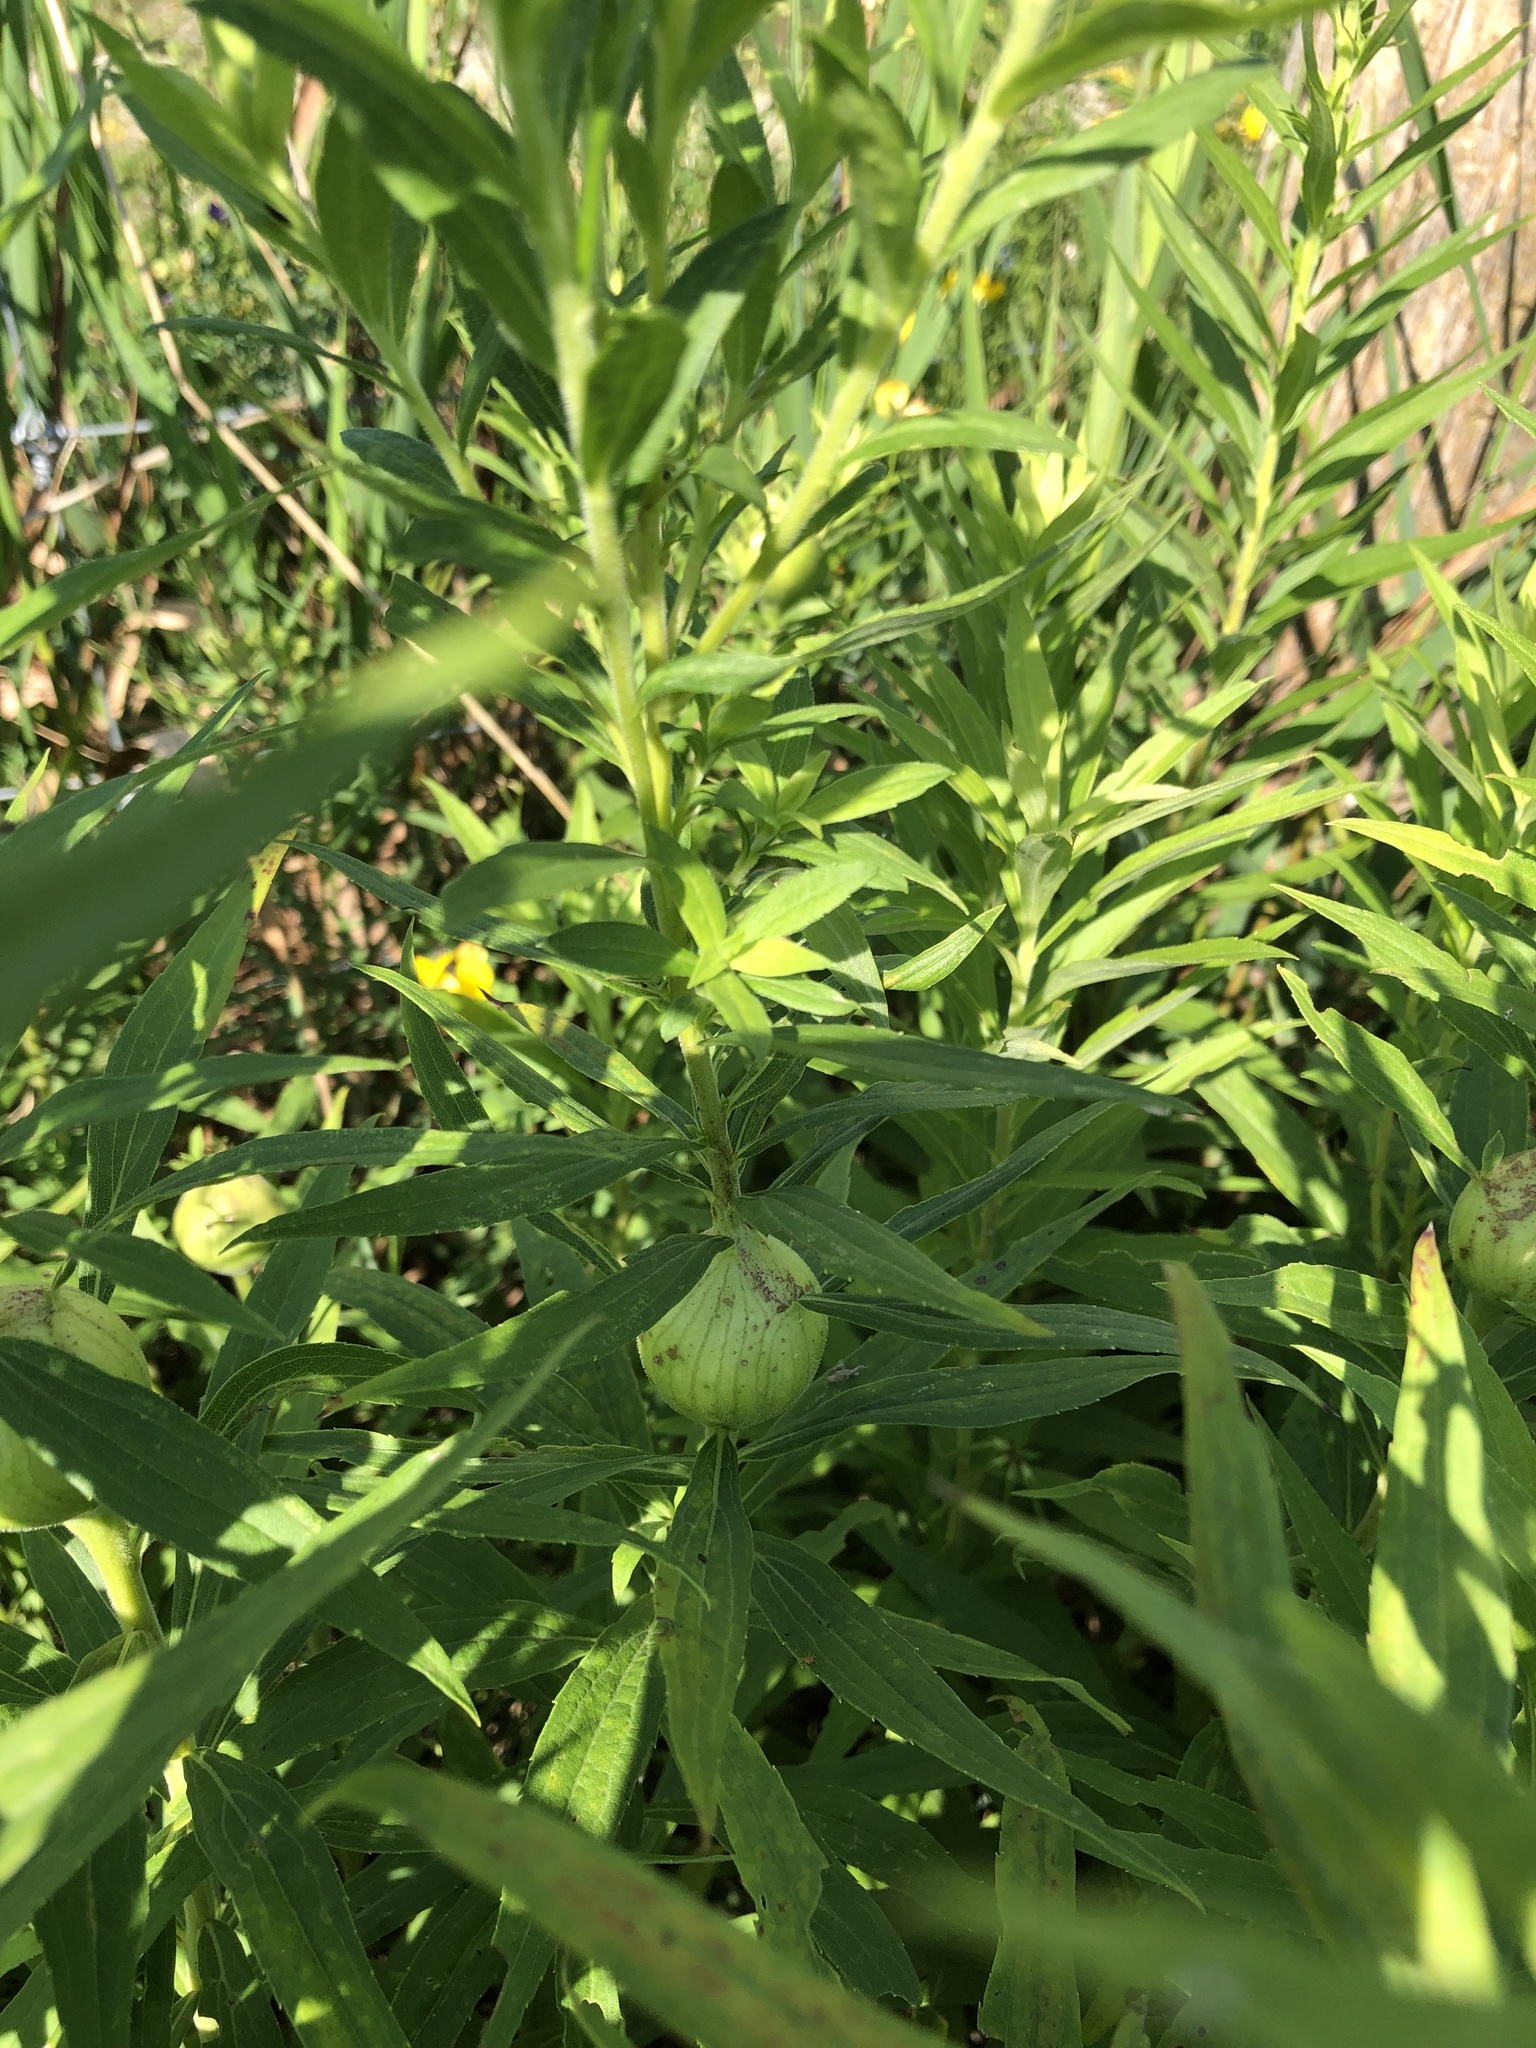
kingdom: Animalia
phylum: Arthropoda
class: Insecta
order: Diptera
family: Tephritidae
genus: Eurosta
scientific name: Eurosta solidaginis
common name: Goldenrod gall fly
